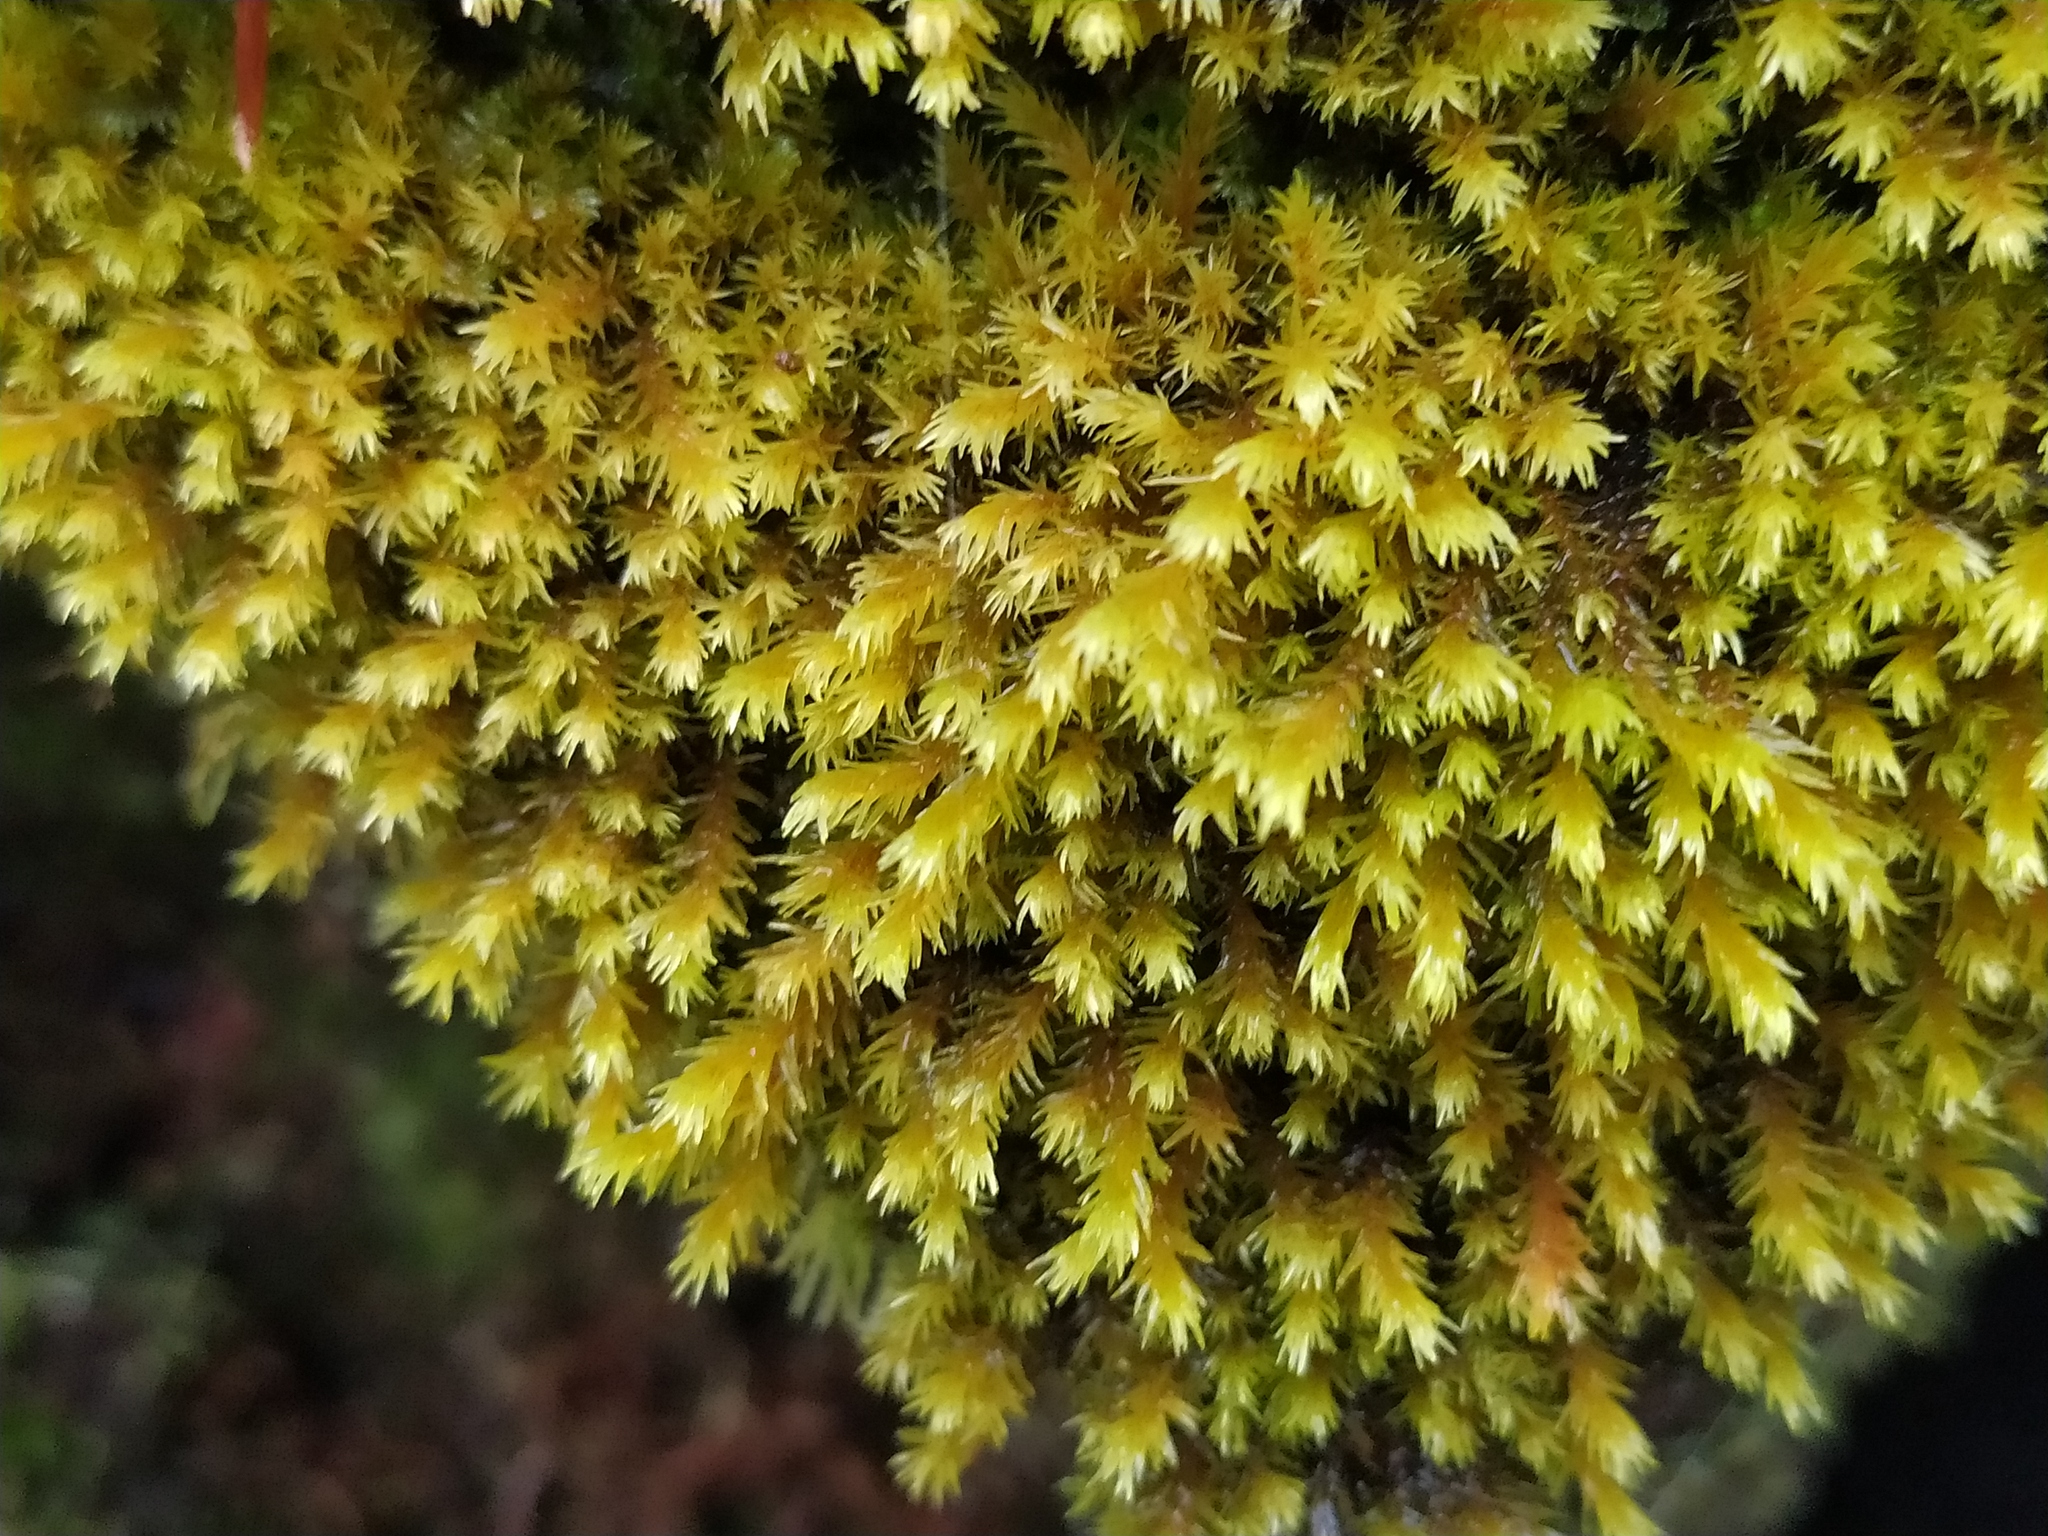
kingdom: Plantae
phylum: Bryophyta
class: Bryopsida
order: Grimmiales
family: Grimmiaceae
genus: Codriophorus
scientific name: Codriophorus aquaticus
